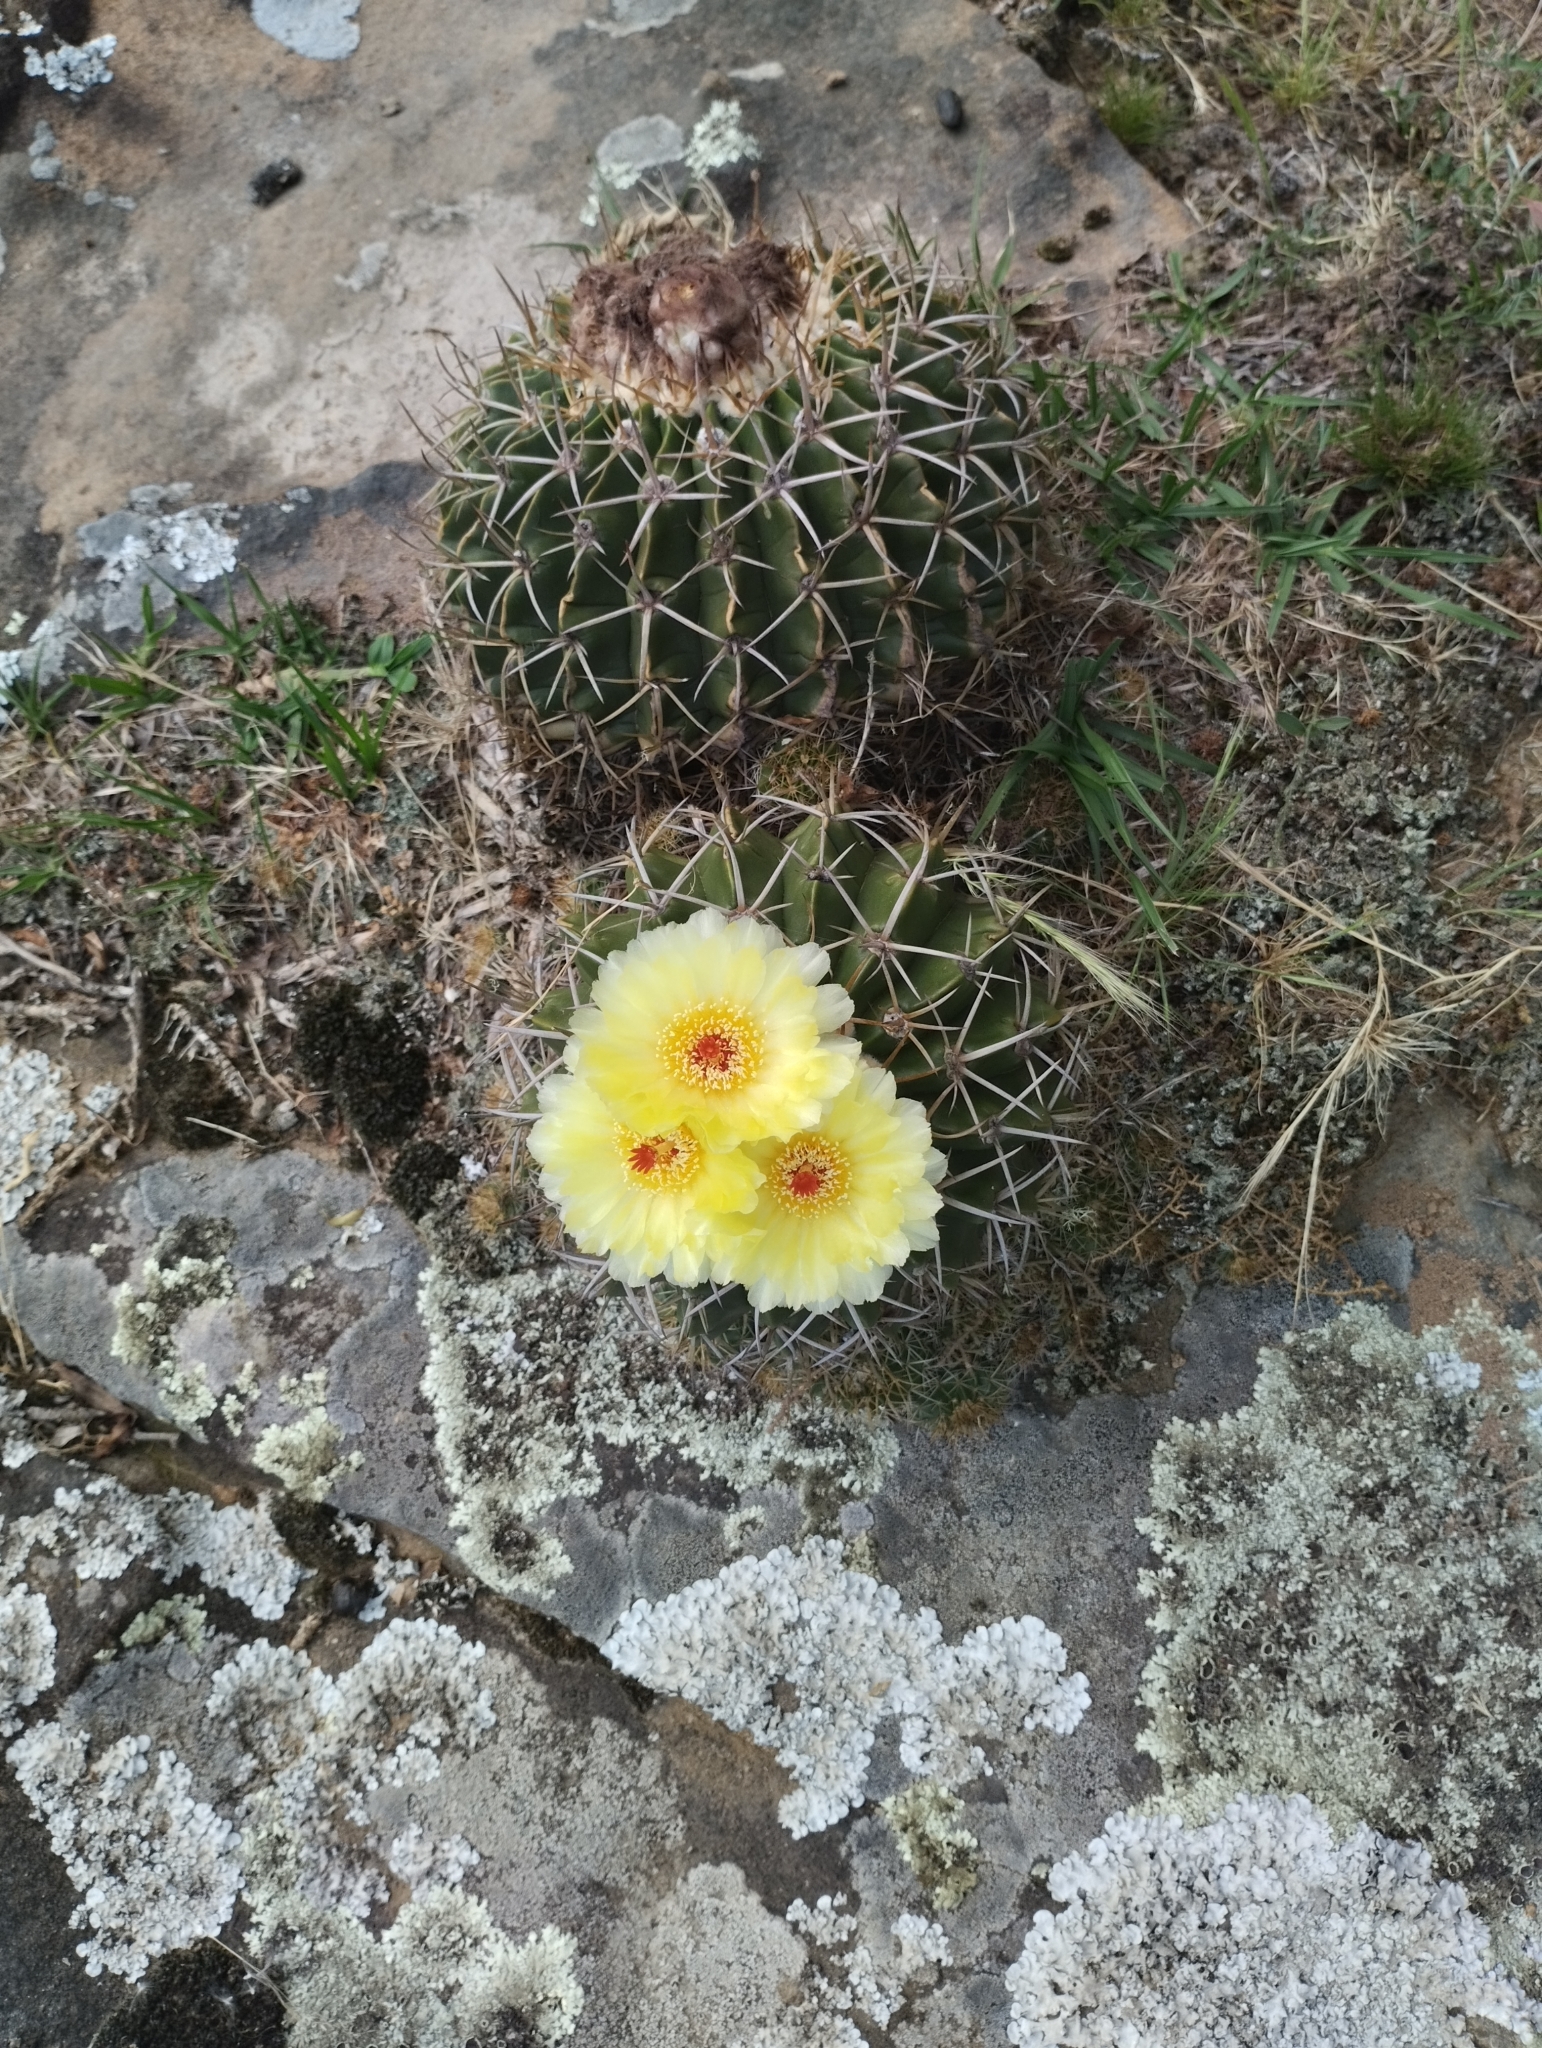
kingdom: Plantae
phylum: Tracheophyta
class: Magnoliopsida
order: Caryophyllales
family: Cactaceae
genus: Parodia
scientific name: Parodia erinacea
